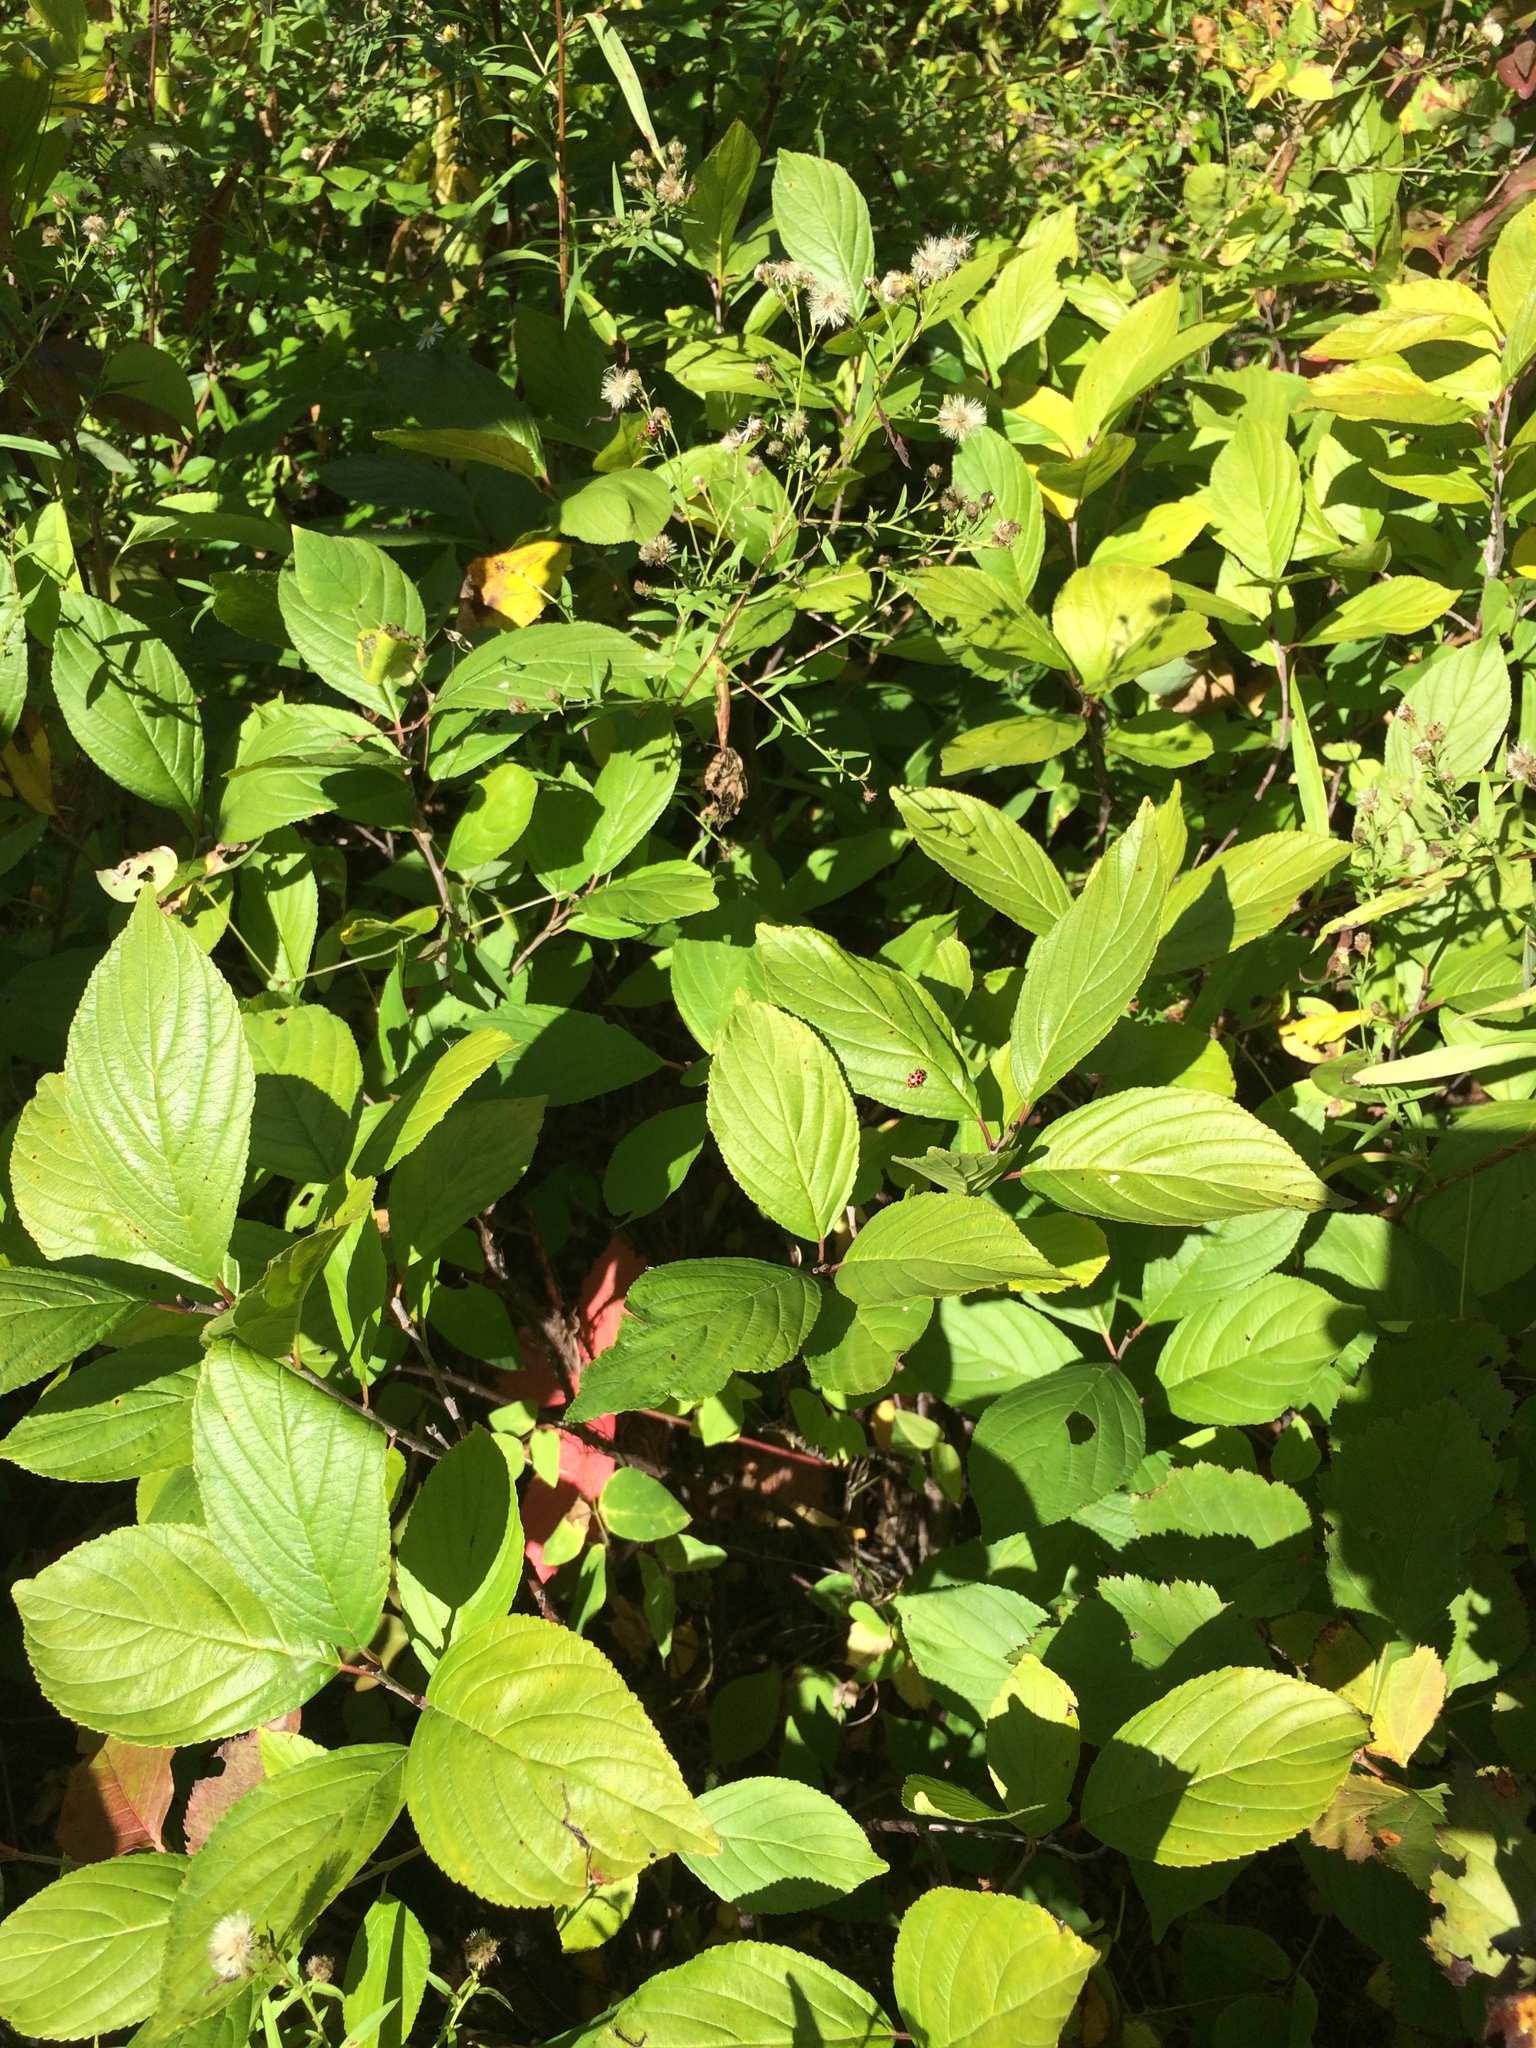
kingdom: Plantae
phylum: Tracheophyta
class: Magnoliopsida
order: Rosales
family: Rhamnaceae
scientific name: Rhamnaceae
